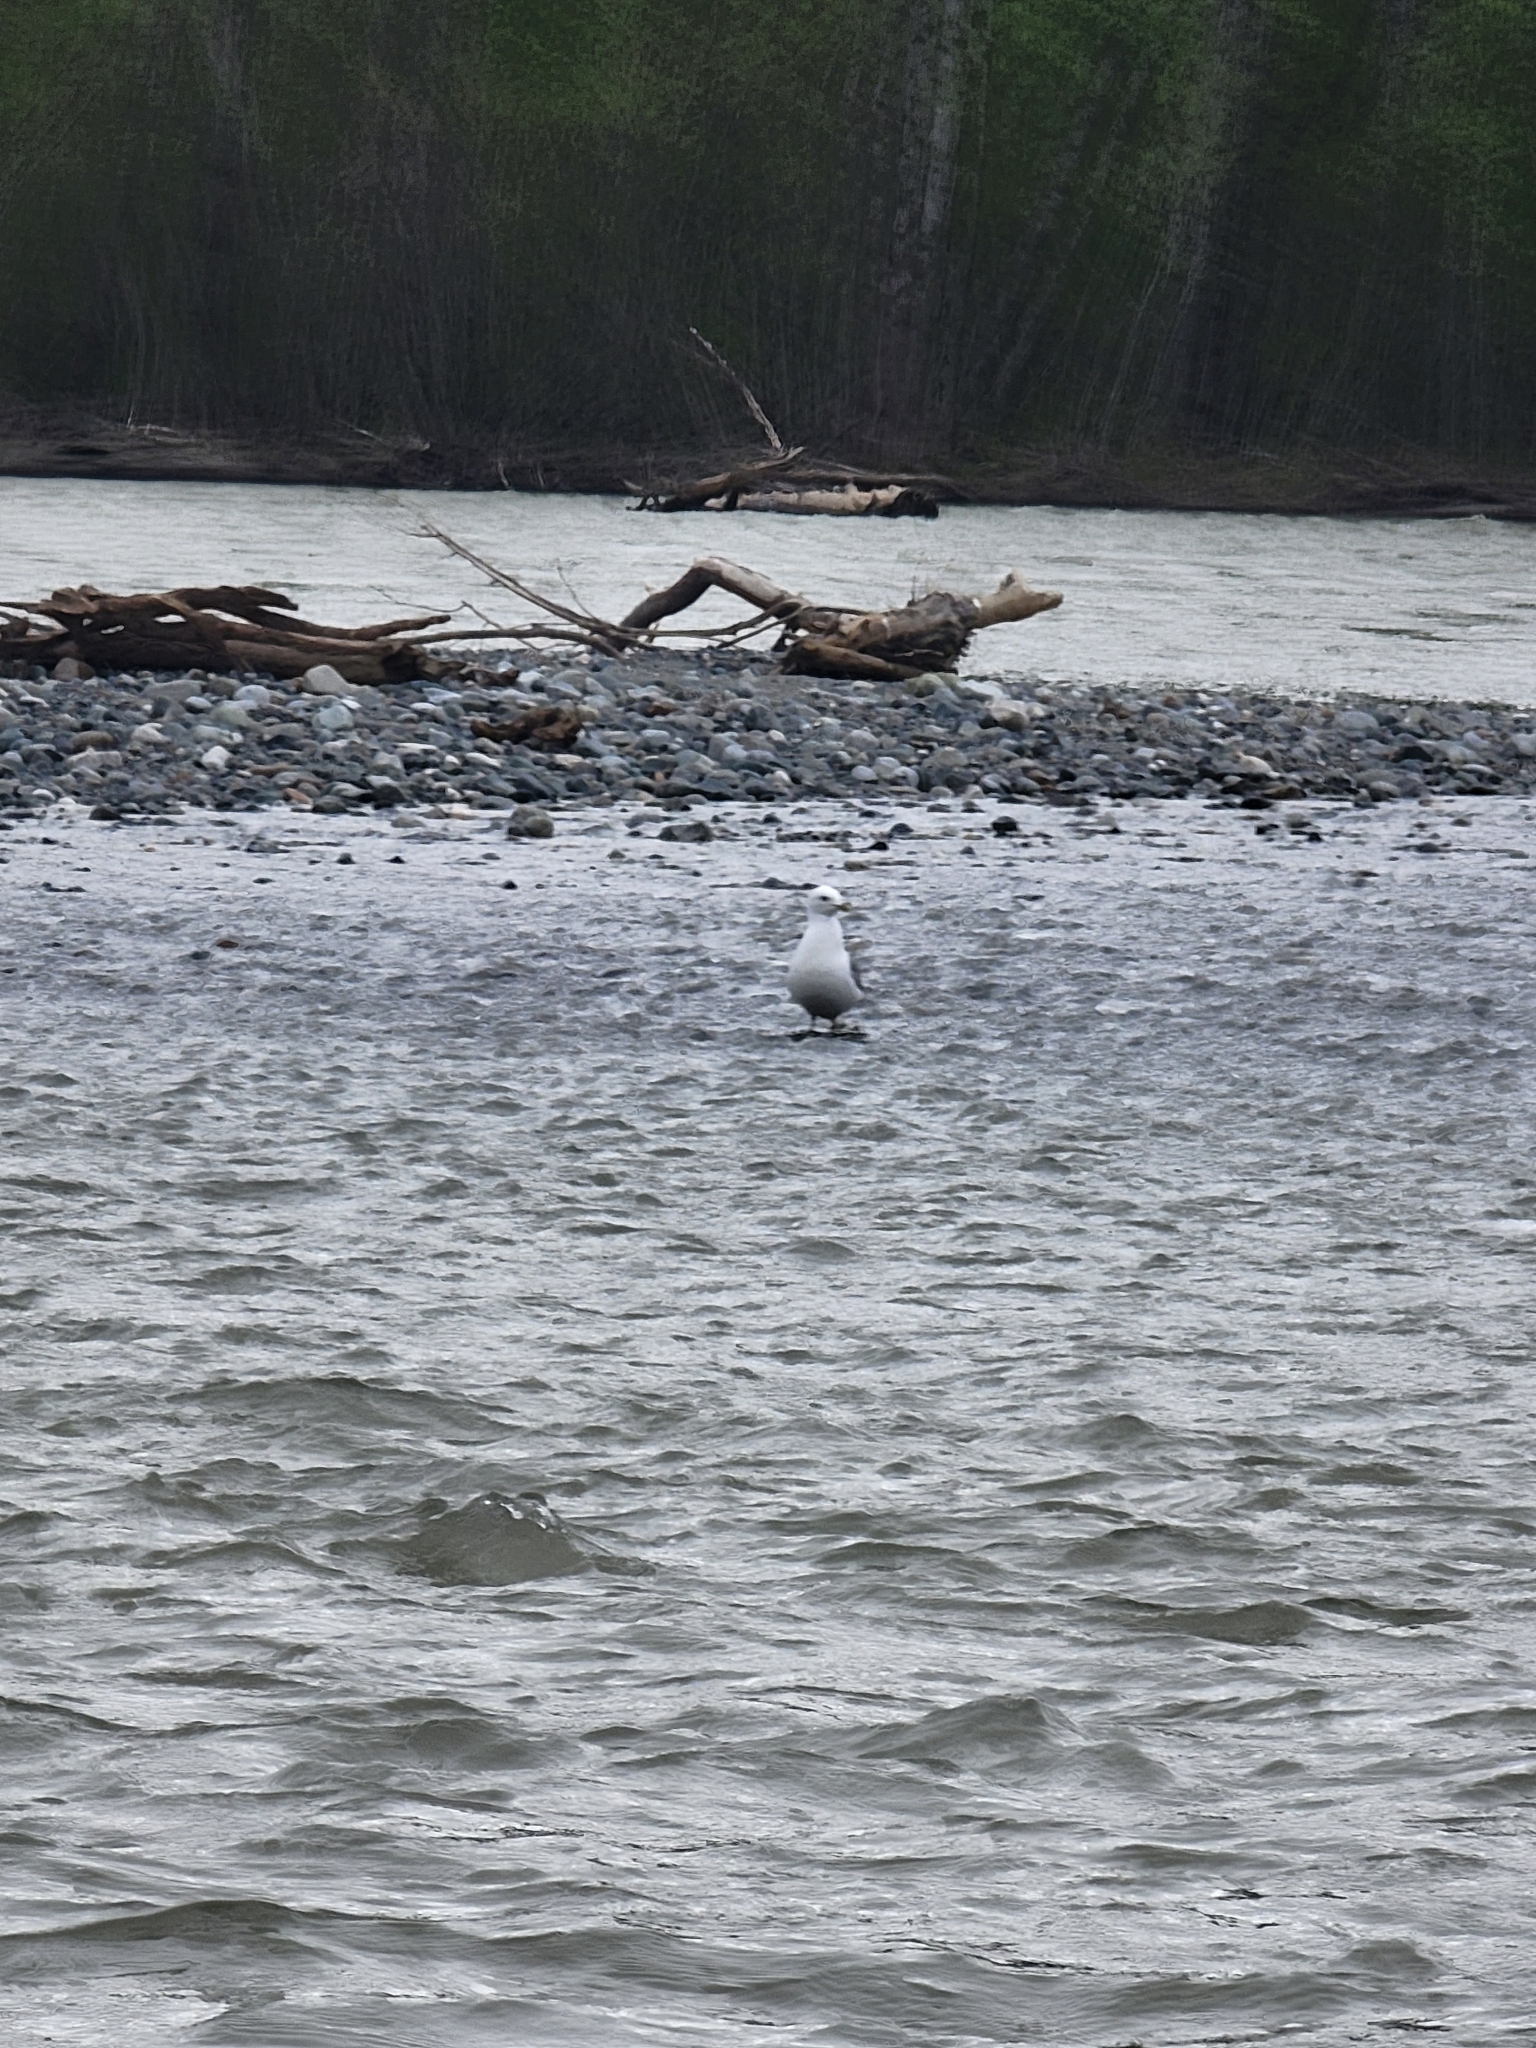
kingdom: Animalia
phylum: Chordata
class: Aves
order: Charadriiformes
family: Laridae
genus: Larus
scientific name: Larus brachyrhynchus
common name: Short-billed gull
